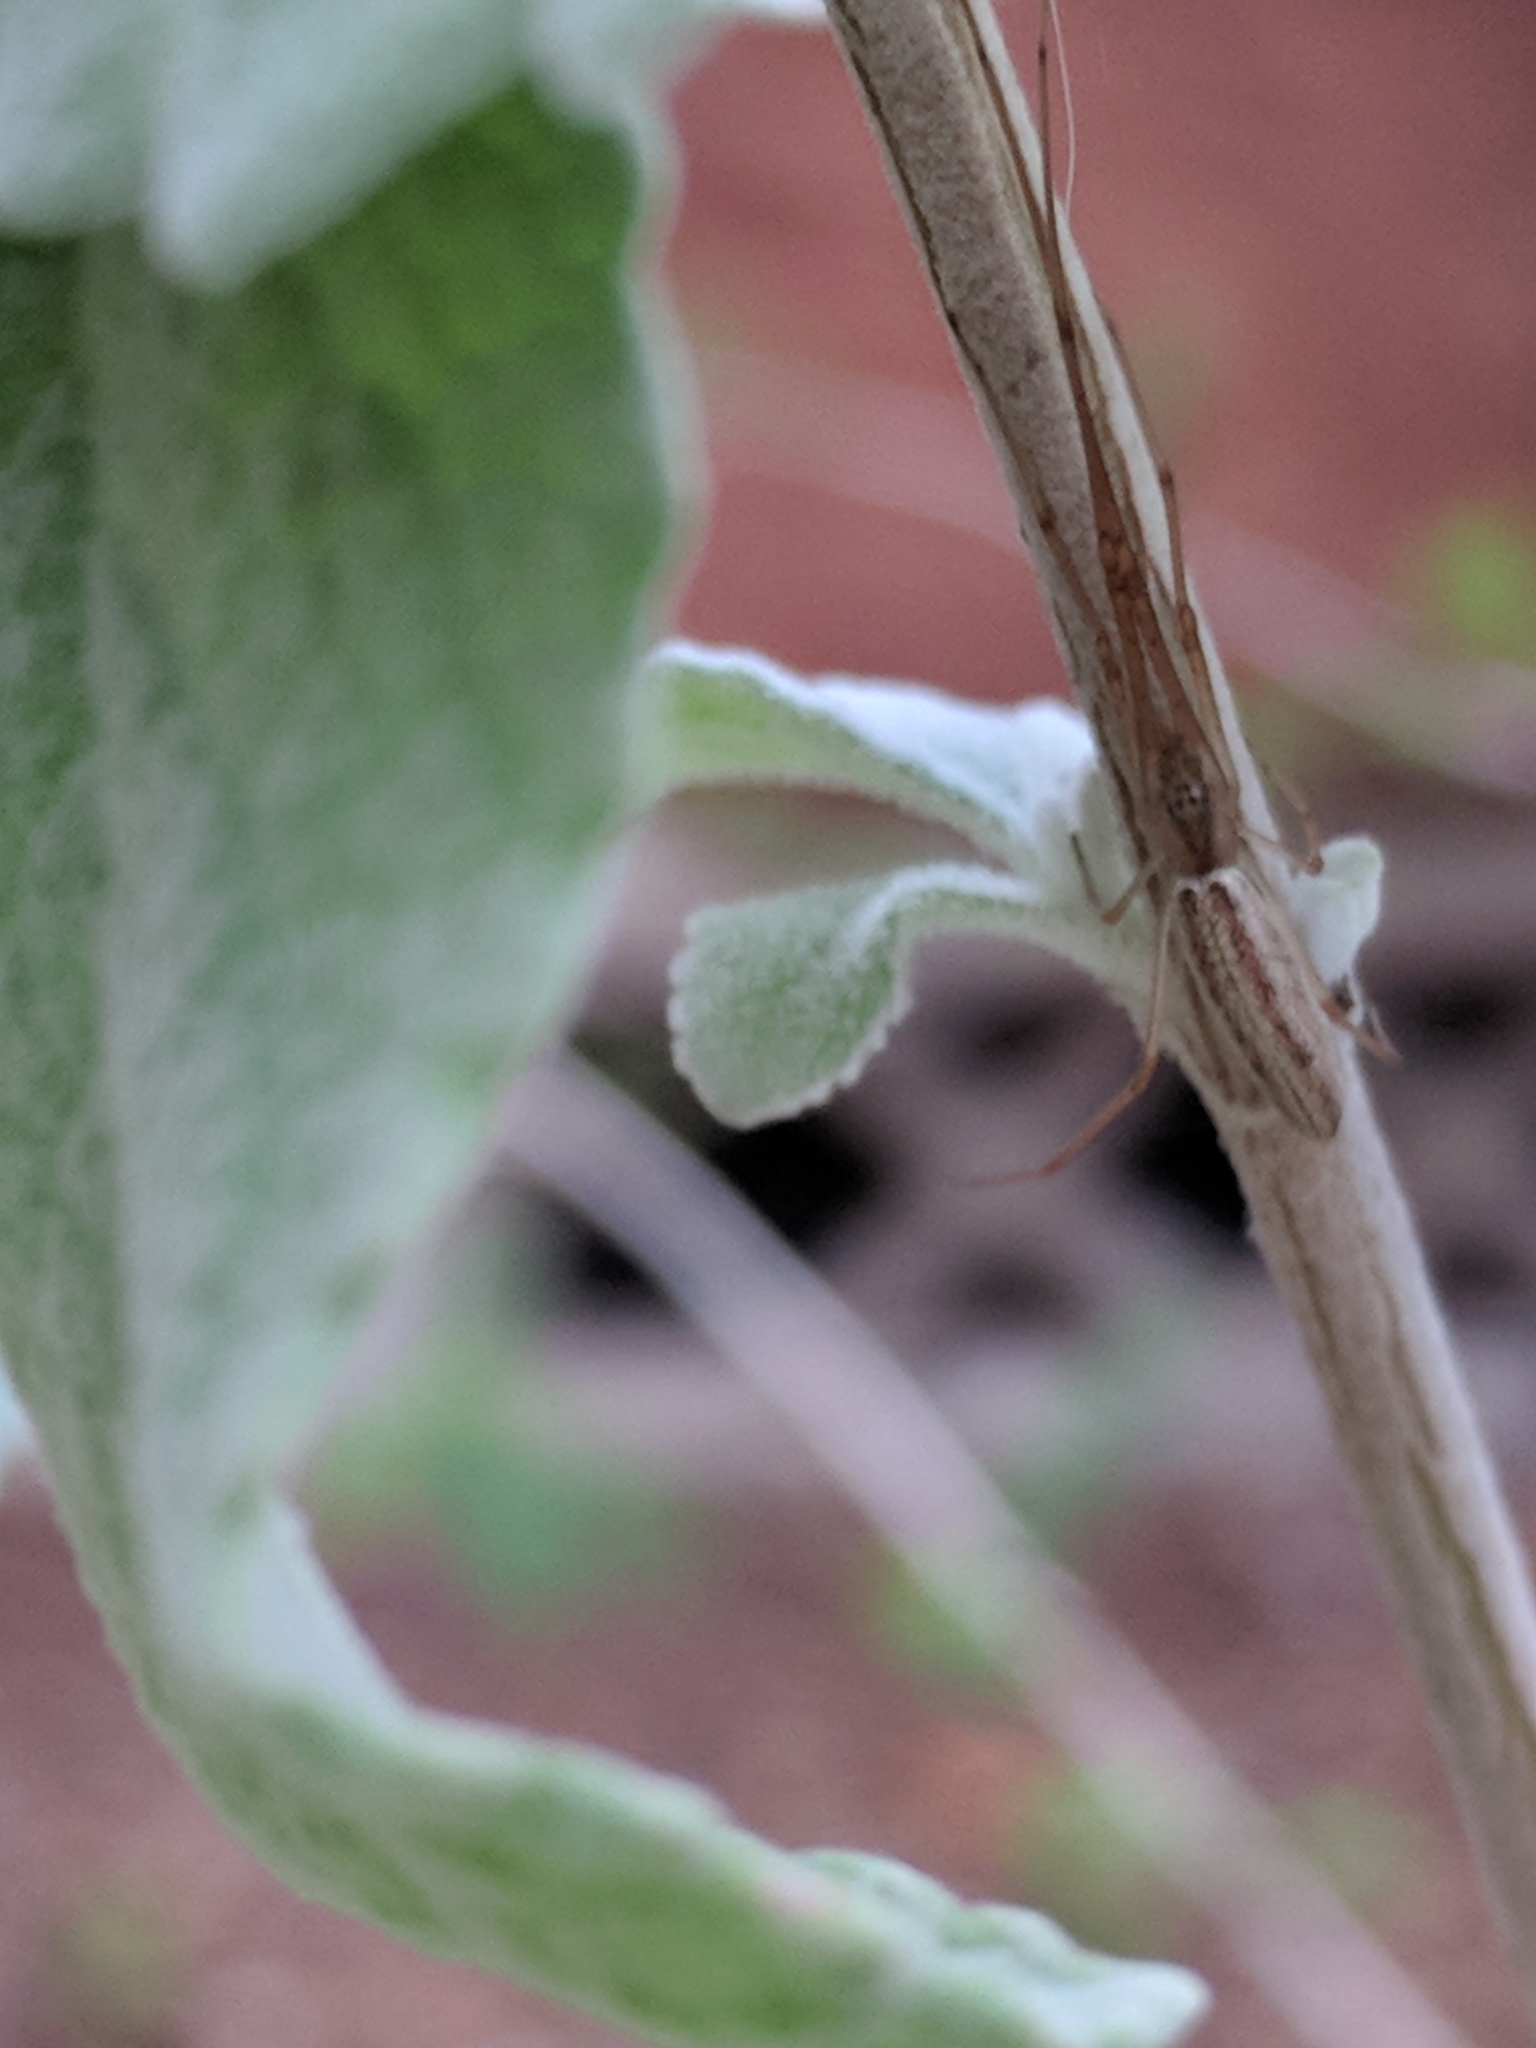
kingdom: Animalia
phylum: Arthropoda
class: Arachnida
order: Araneae
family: Tetragnathidae
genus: Tetragnatha
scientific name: Tetragnatha
